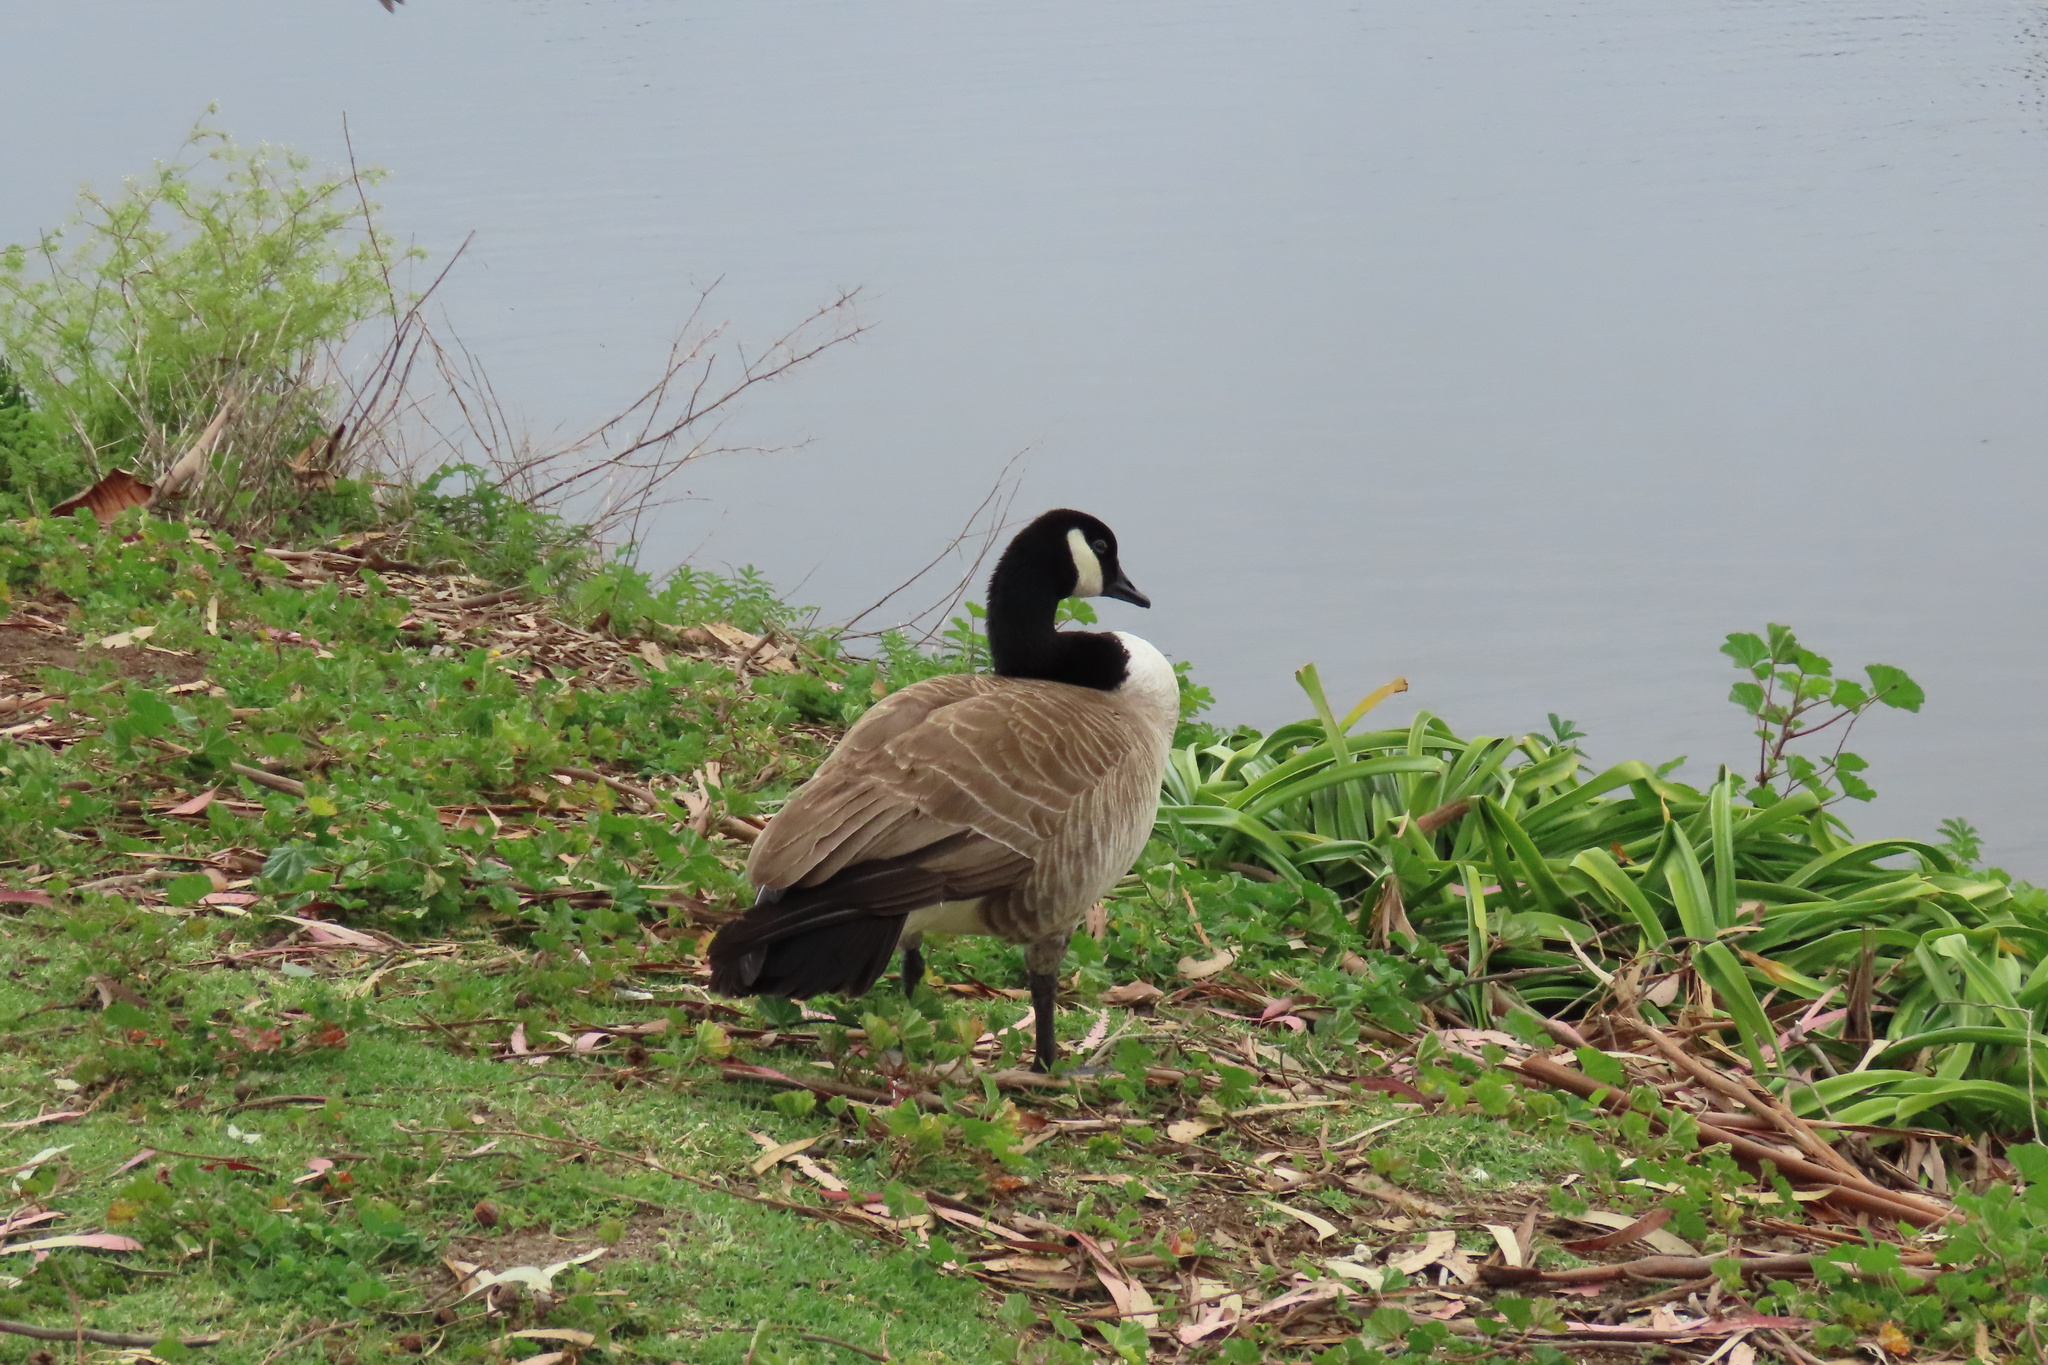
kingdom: Animalia
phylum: Chordata
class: Aves
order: Anseriformes
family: Anatidae
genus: Branta
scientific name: Branta canadensis
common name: Canada goose
